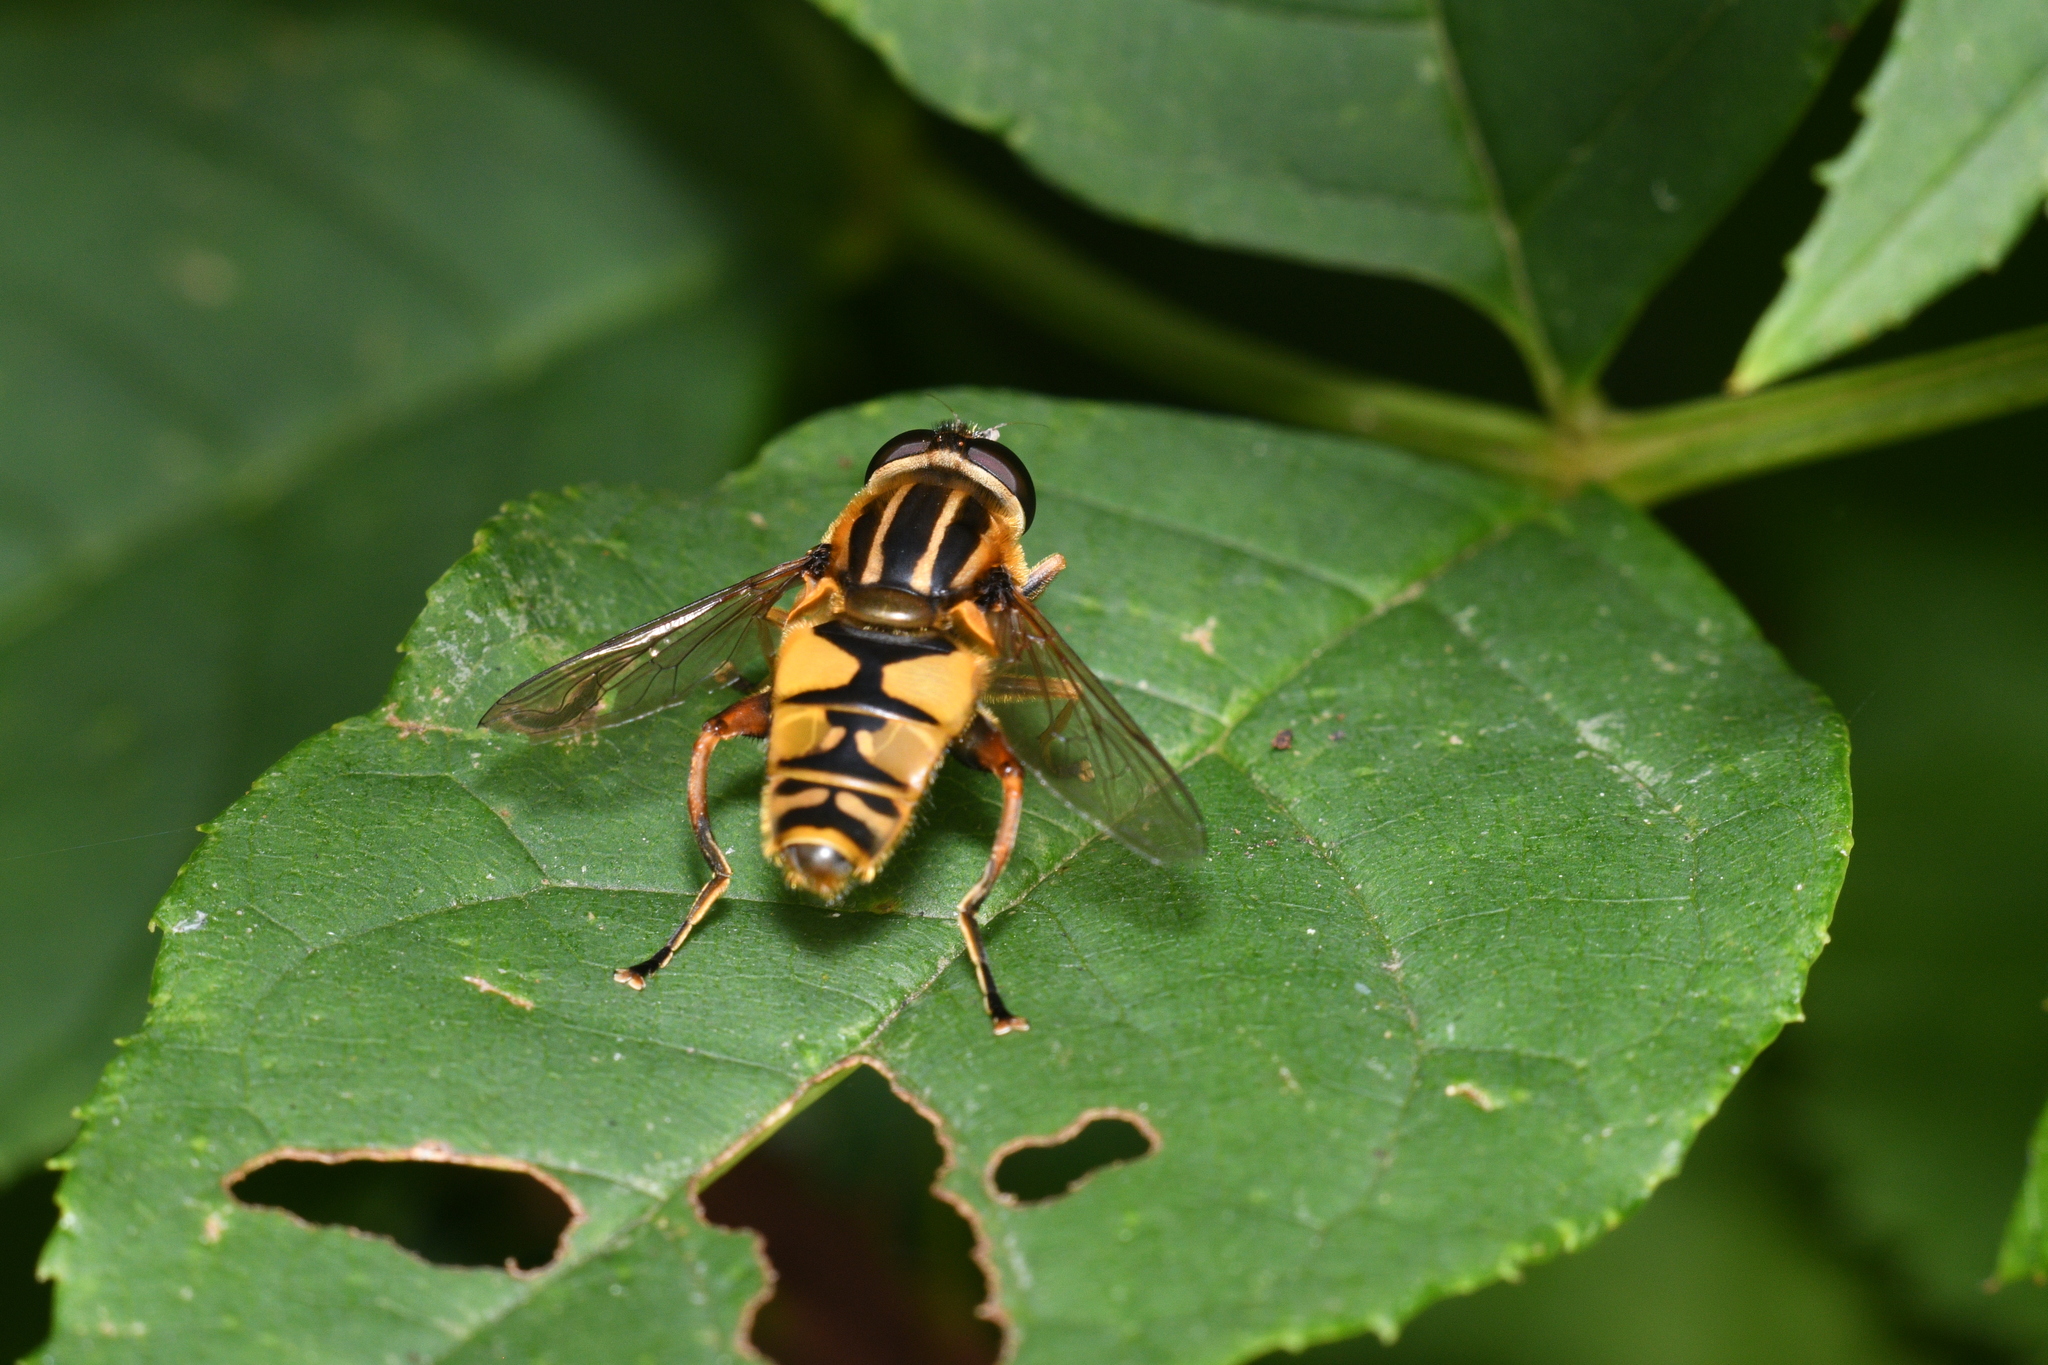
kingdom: Animalia
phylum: Arthropoda
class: Insecta
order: Diptera
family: Syrphidae
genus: Helophilus
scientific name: Helophilus pendulus
